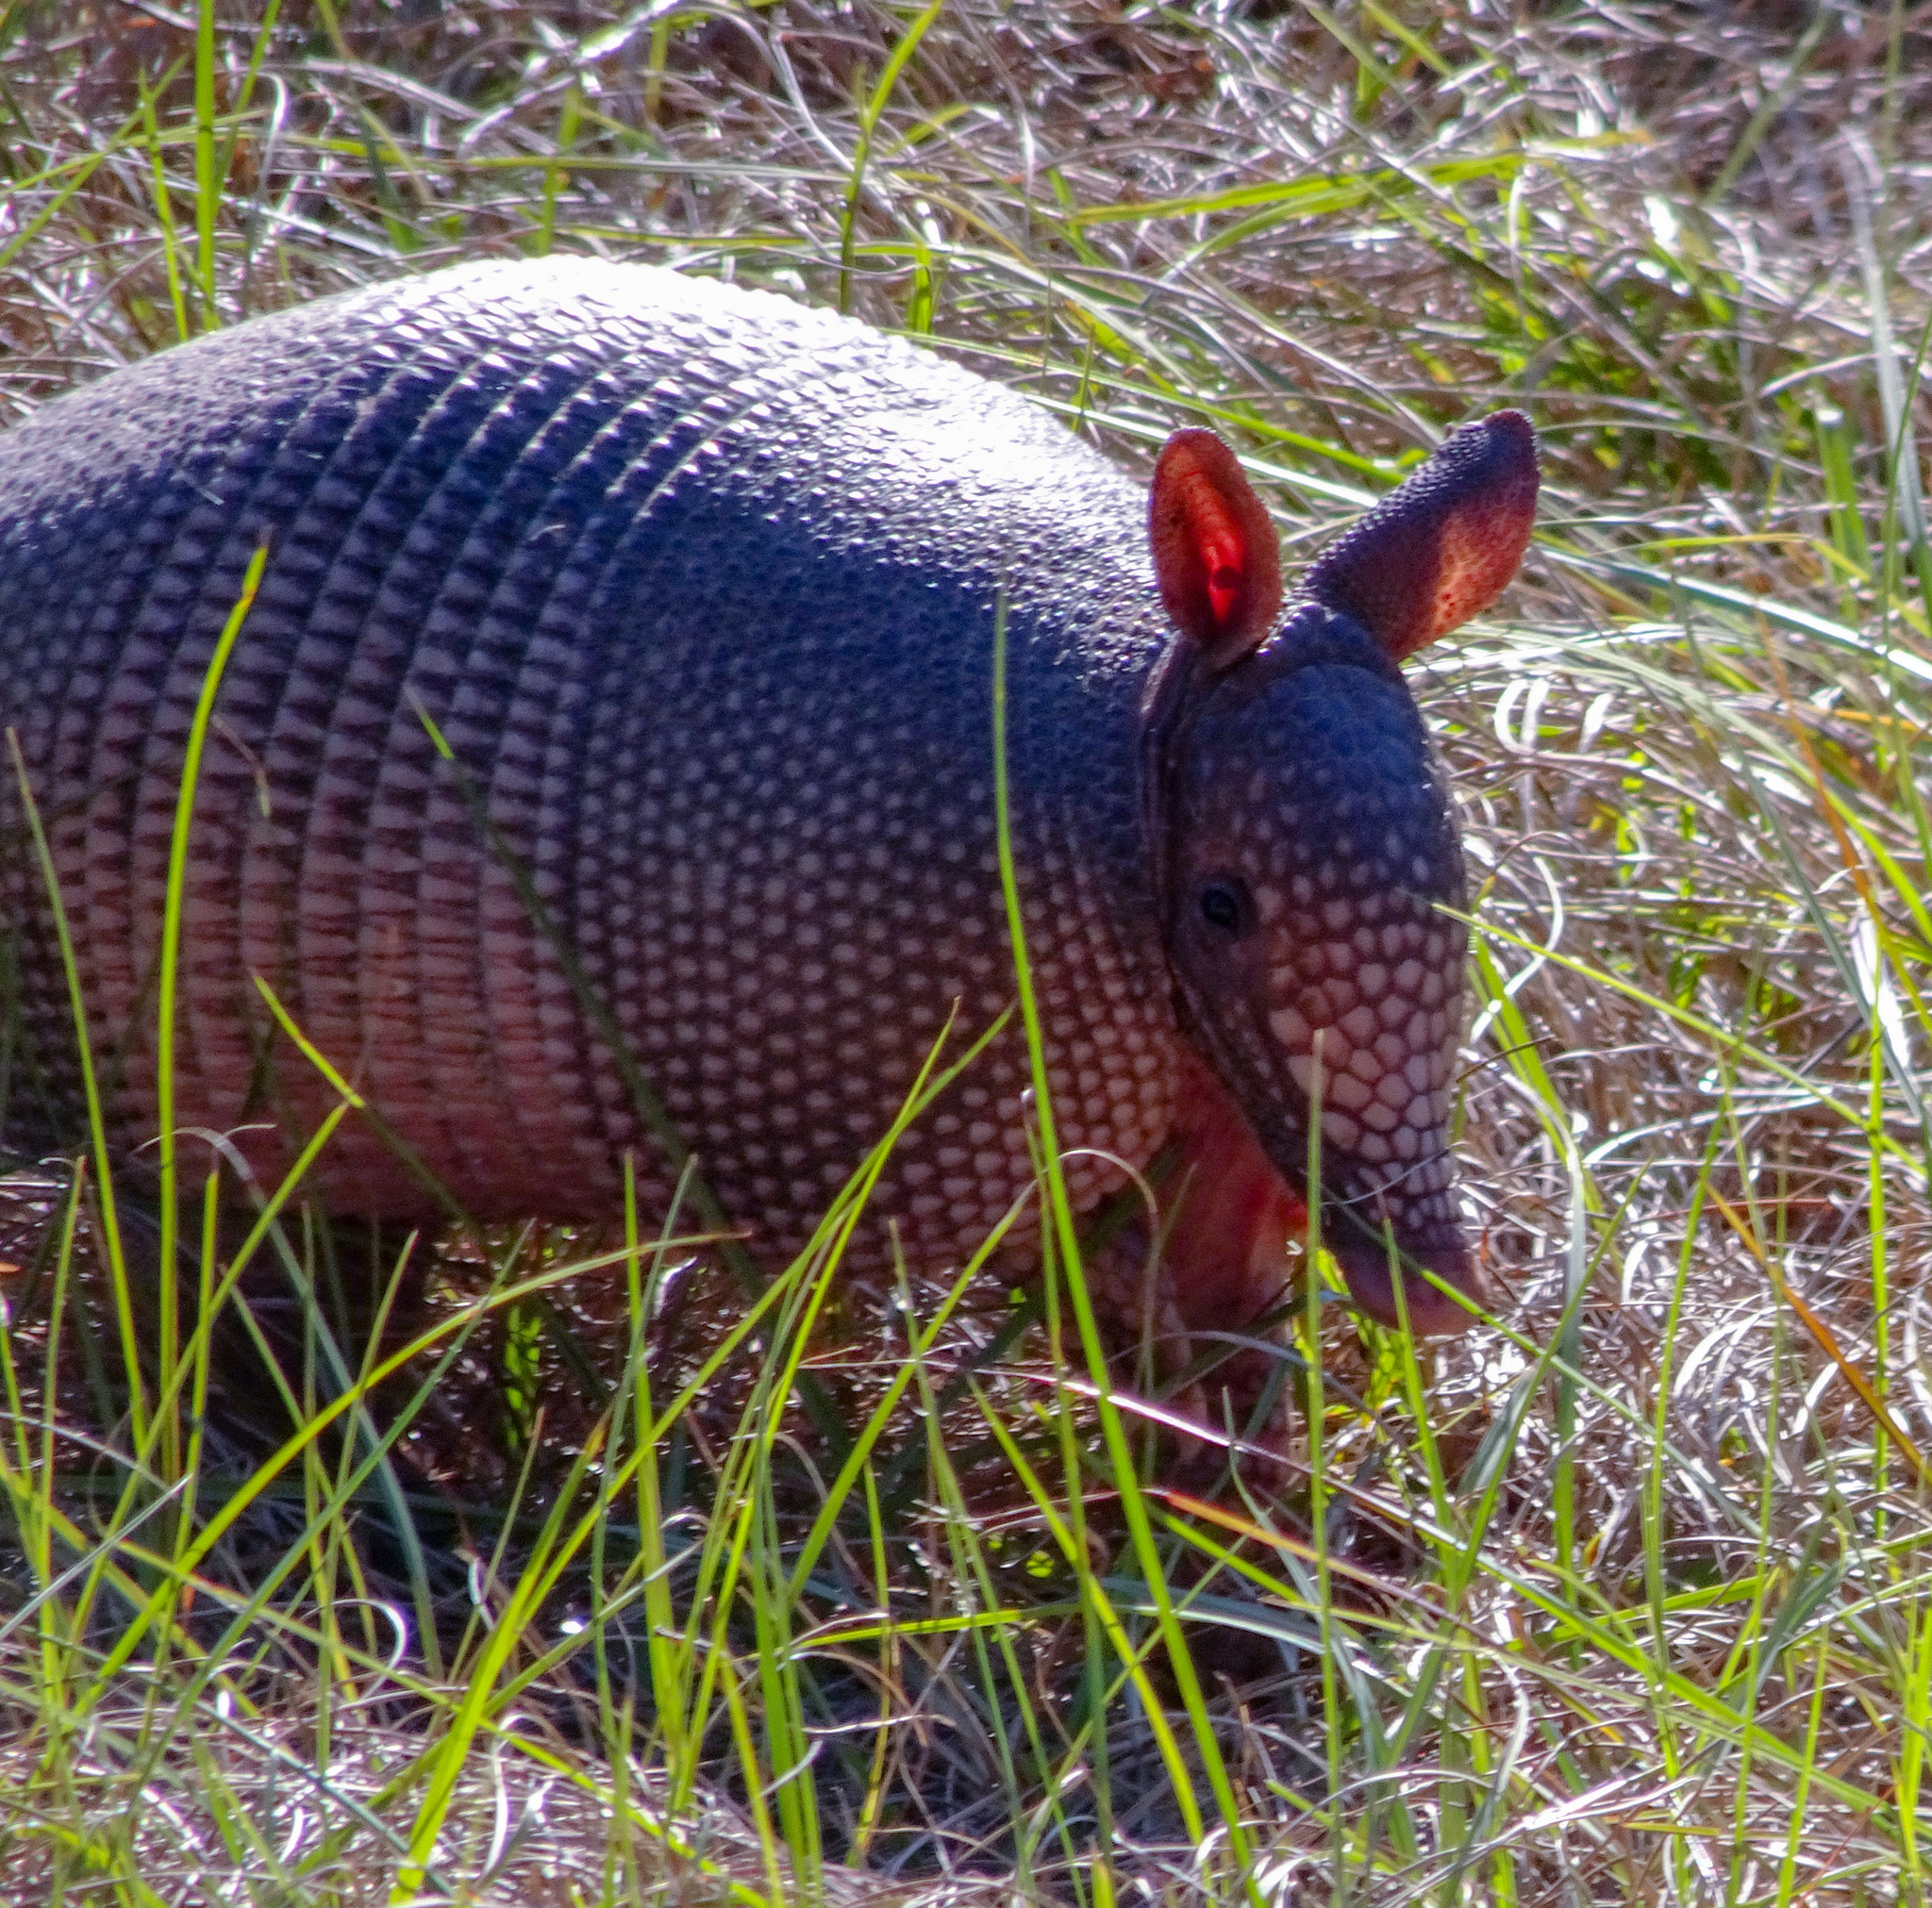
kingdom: Animalia
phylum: Chordata
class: Mammalia
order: Cingulata
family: Dasypodidae
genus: Dasypus
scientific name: Dasypus novemcinctus
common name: Nine-banded armadillo
